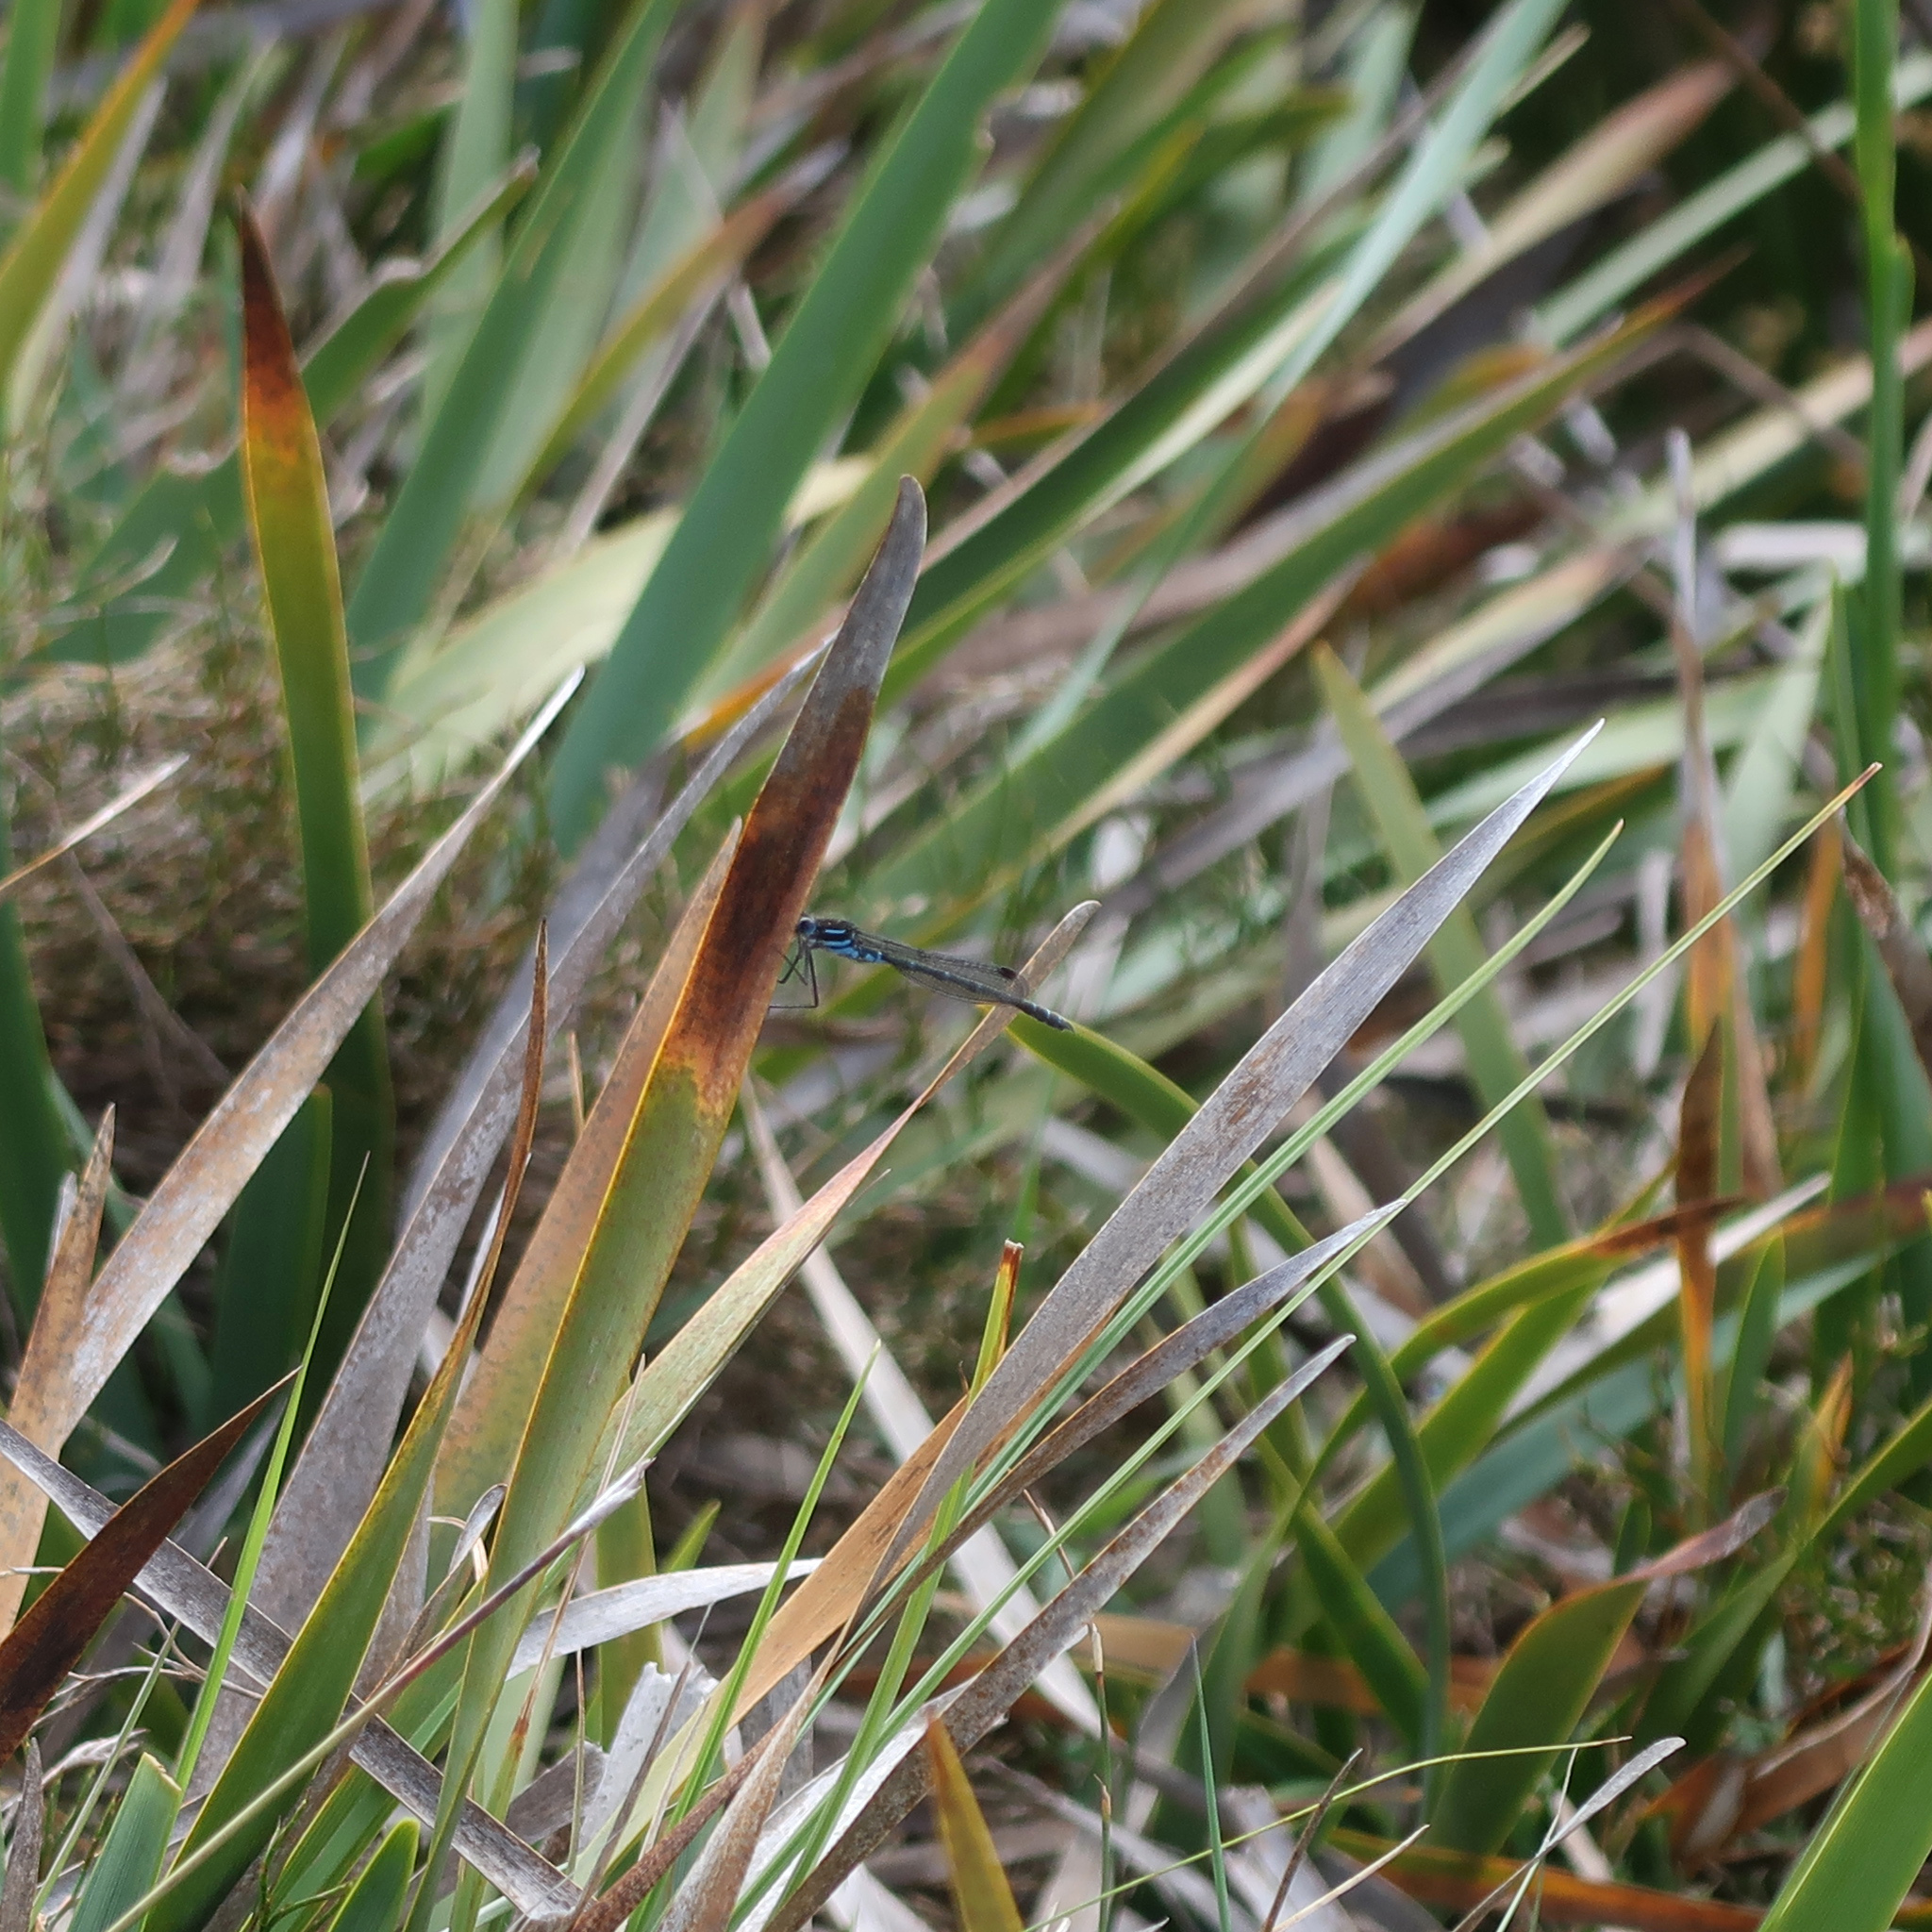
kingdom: Animalia
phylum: Arthropoda
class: Insecta
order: Odonata
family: Lestidae
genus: Austrolestes
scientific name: Austrolestes psyche
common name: Cup ringtail
